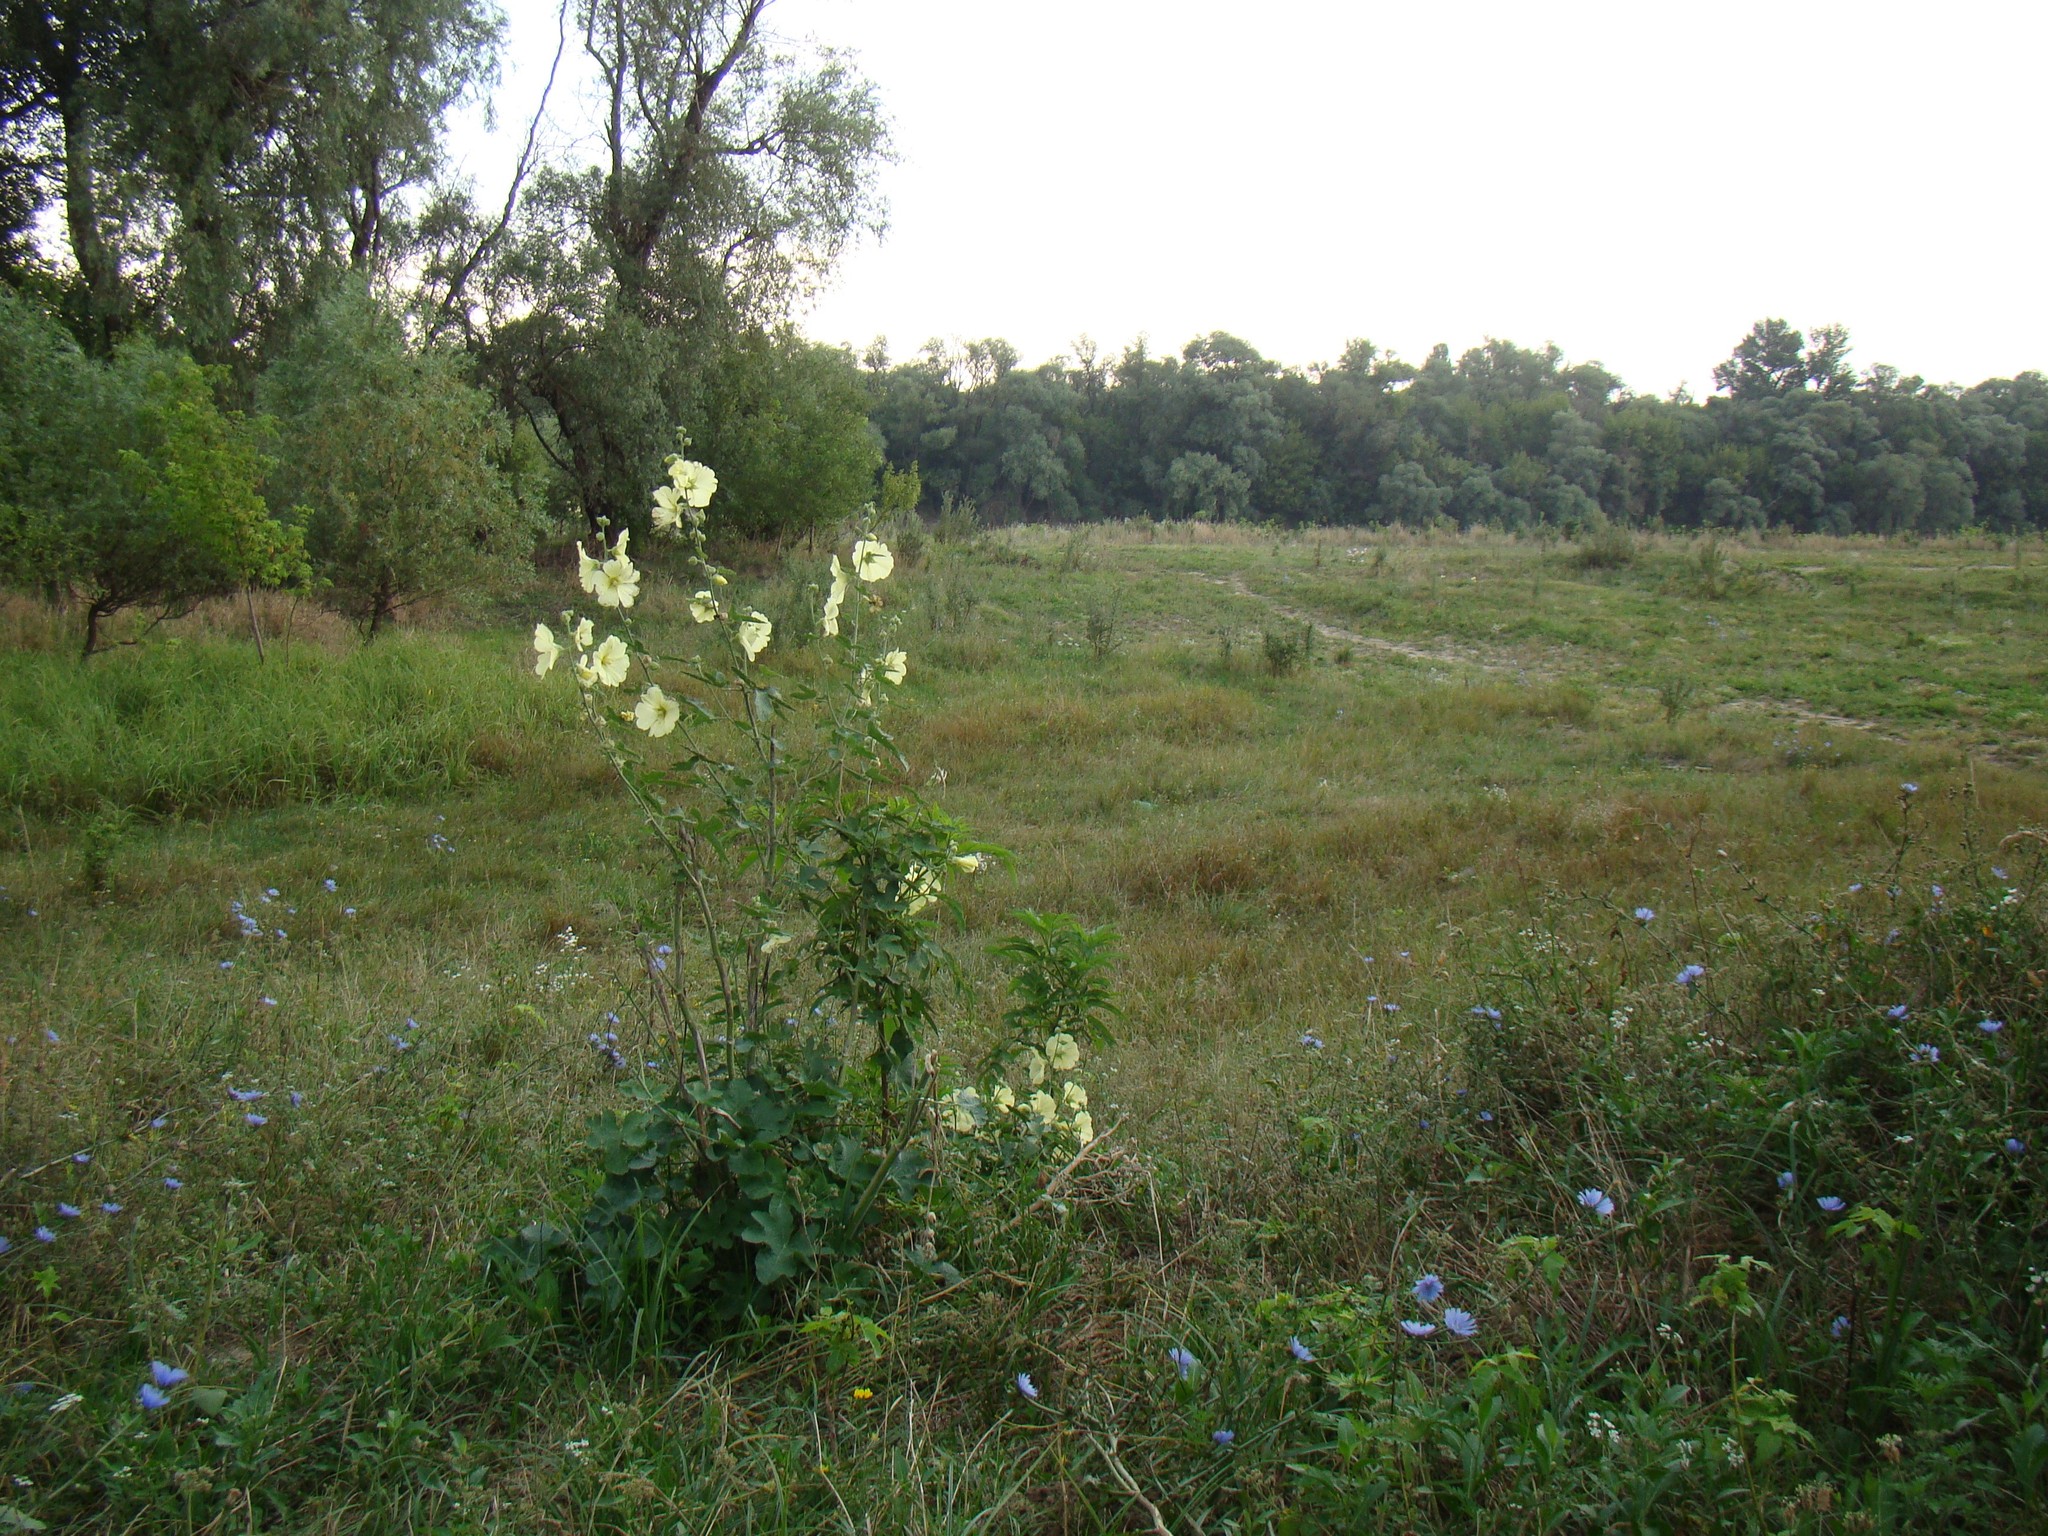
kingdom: Plantae
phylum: Tracheophyta
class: Magnoliopsida
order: Malvales
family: Malvaceae
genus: Alcea
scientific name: Alcea rugosa
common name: Russian hollyhock
